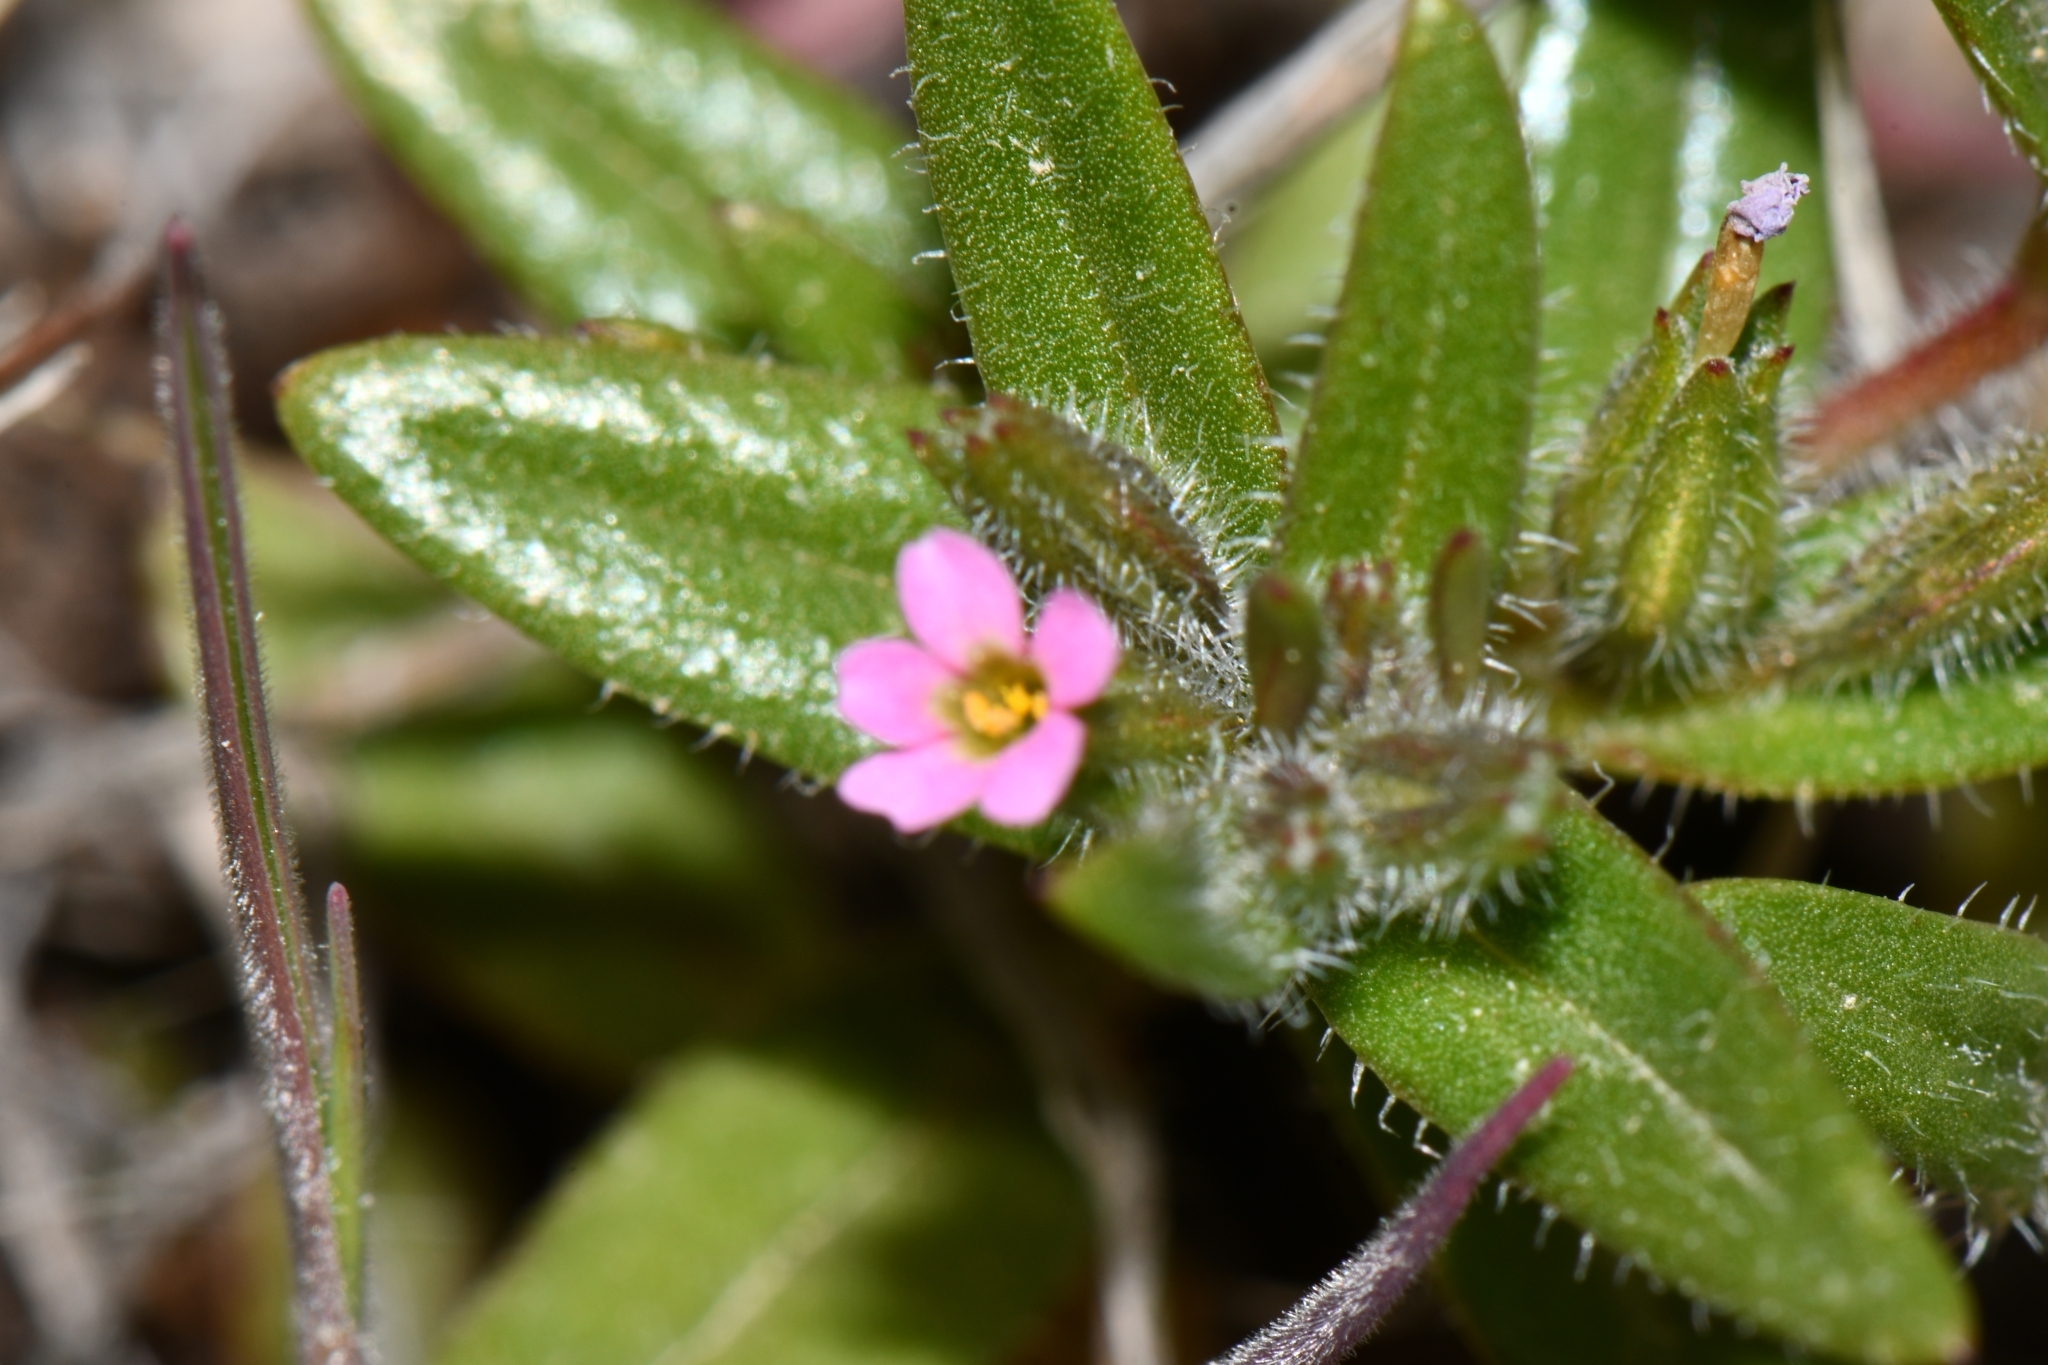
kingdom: Plantae
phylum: Tracheophyta
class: Magnoliopsida
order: Ericales
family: Polemoniaceae
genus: Phlox
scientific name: Phlox gracilis
